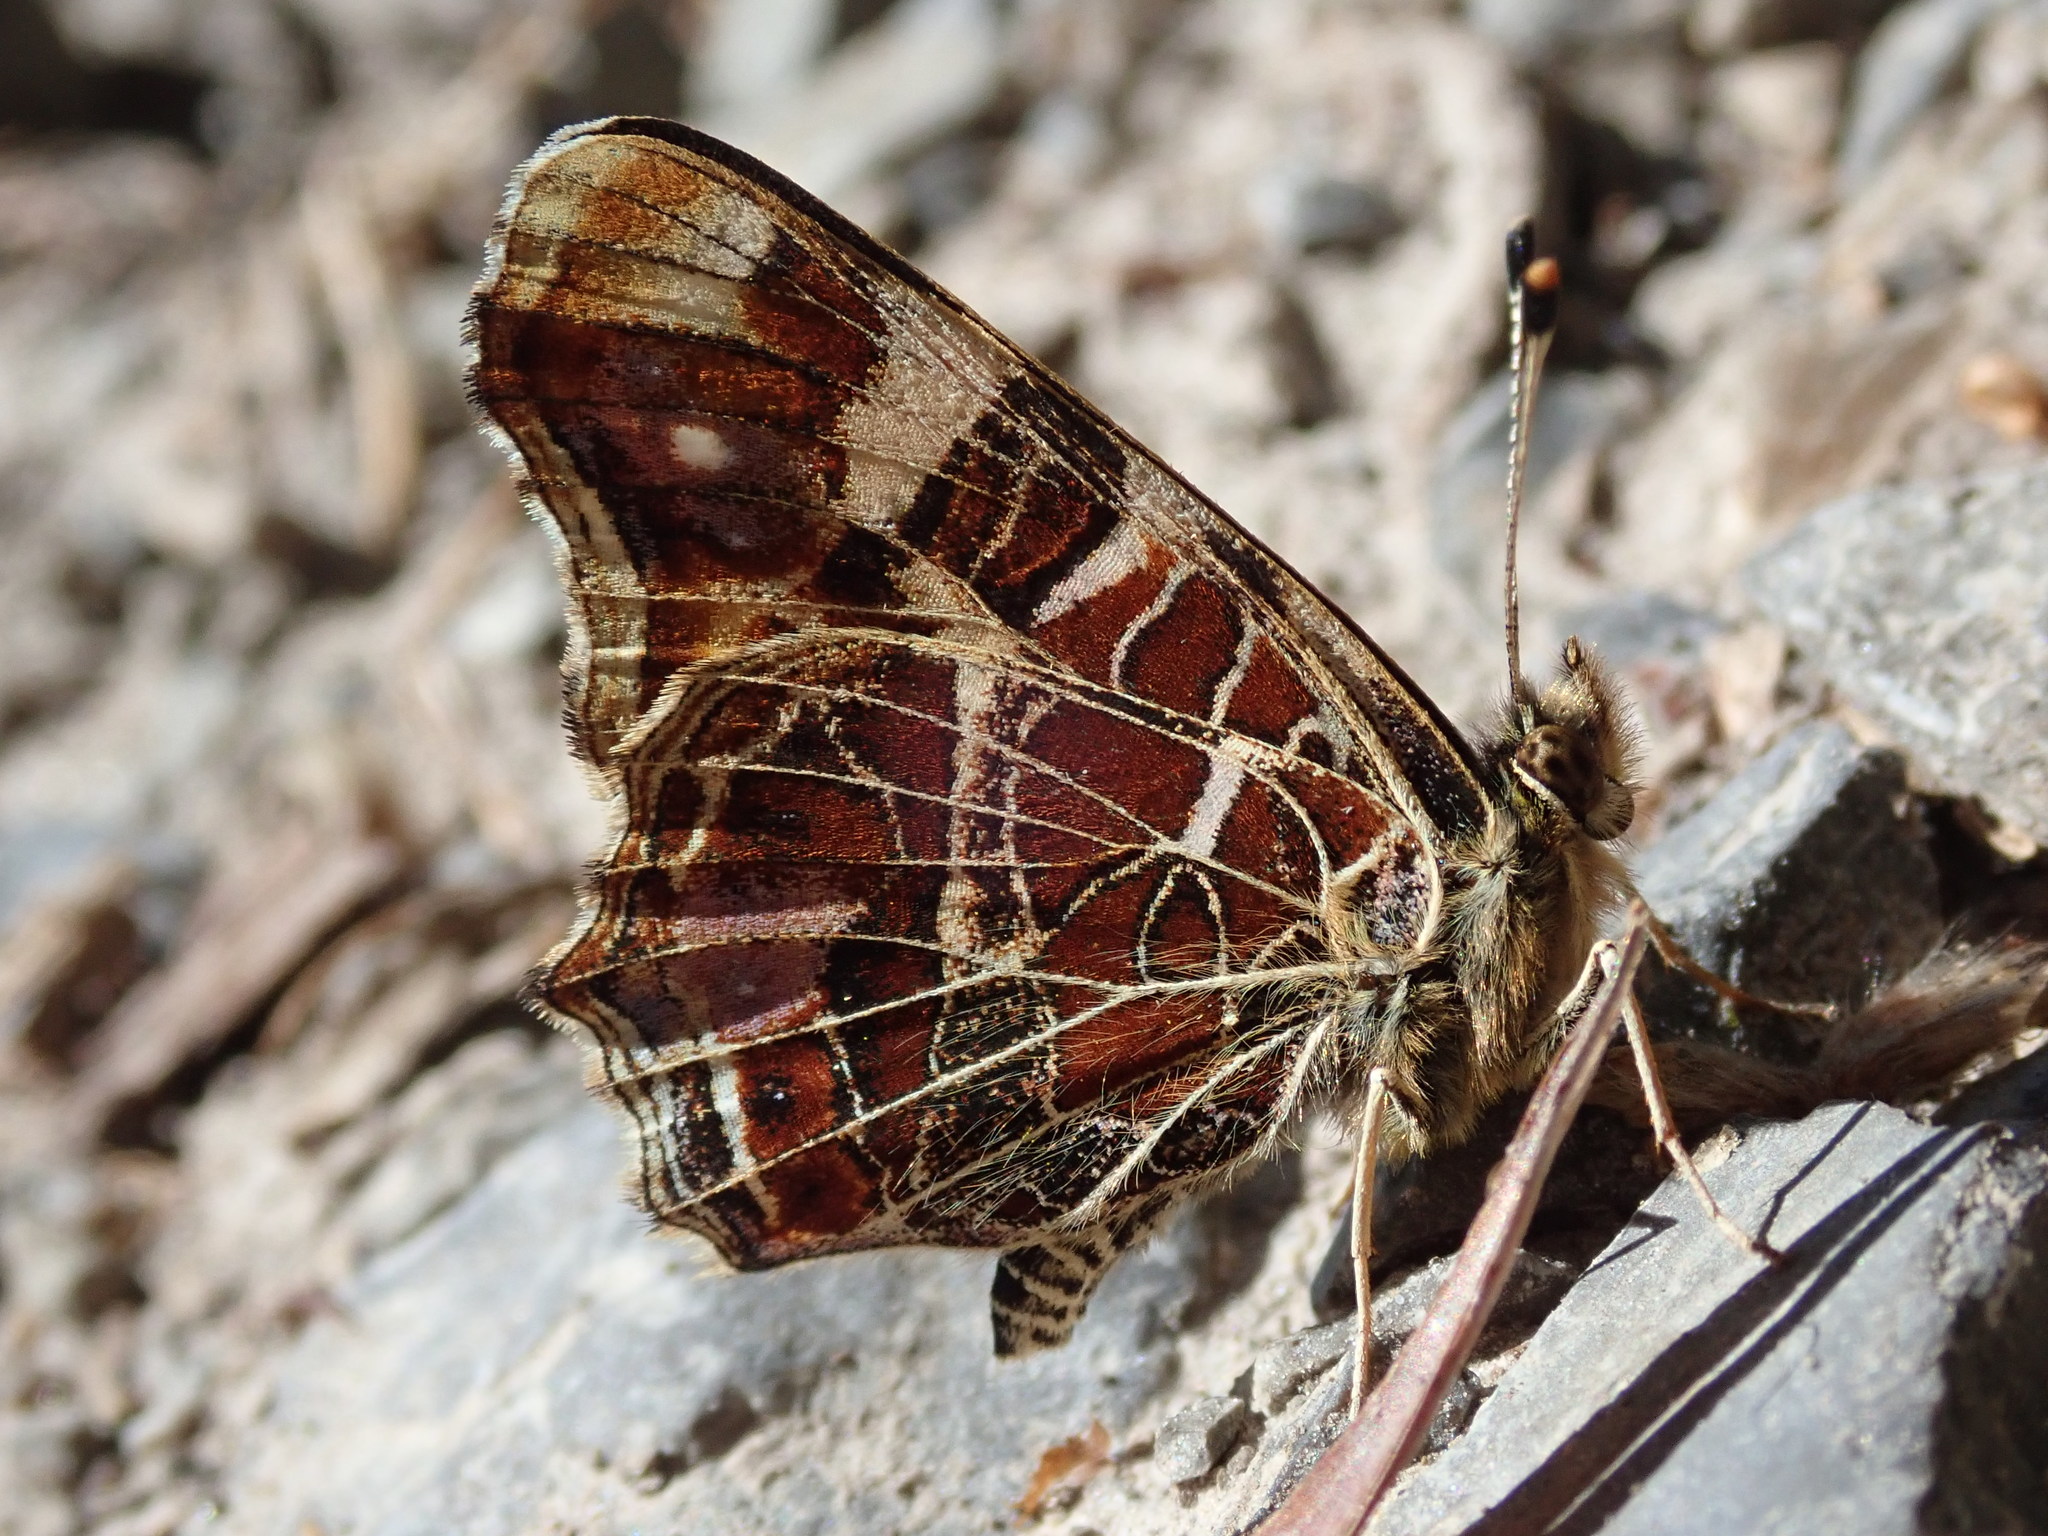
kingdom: Animalia
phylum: Arthropoda
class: Insecta
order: Lepidoptera
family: Nymphalidae
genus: Araschnia
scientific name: Araschnia levana
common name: Map butterfly
